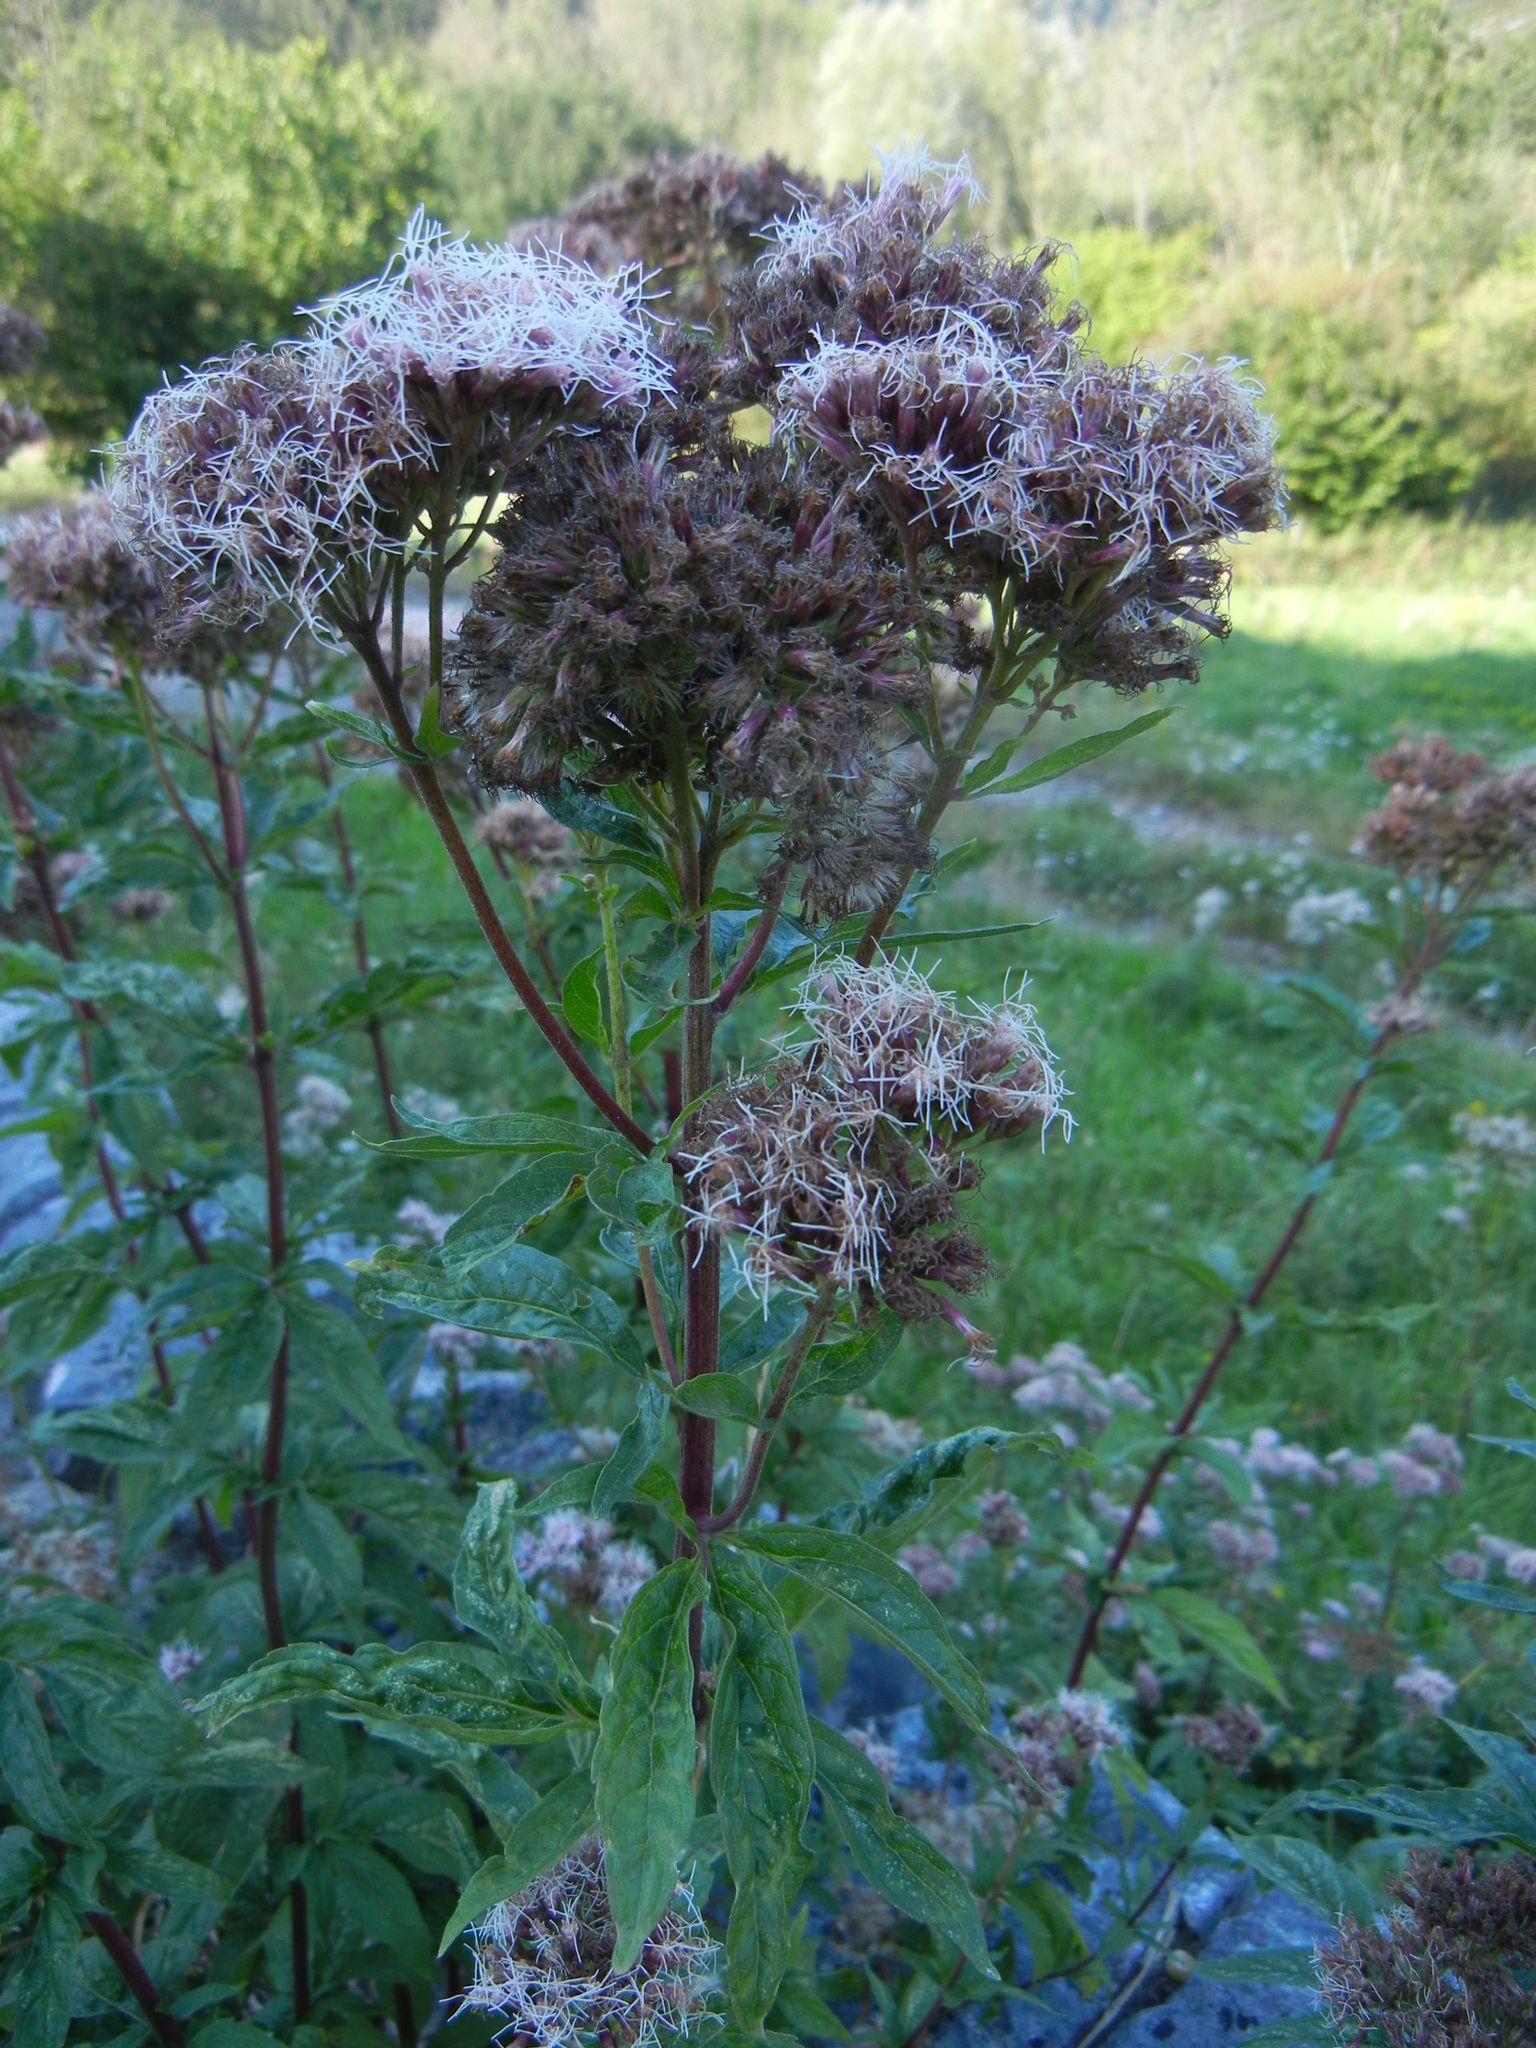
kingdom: Plantae
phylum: Tracheophyta
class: Magnoliopsida
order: Asterales
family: Asteraceae
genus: Eupatorium
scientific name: Eupatorium cannabinum
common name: Hemp-agrimony
